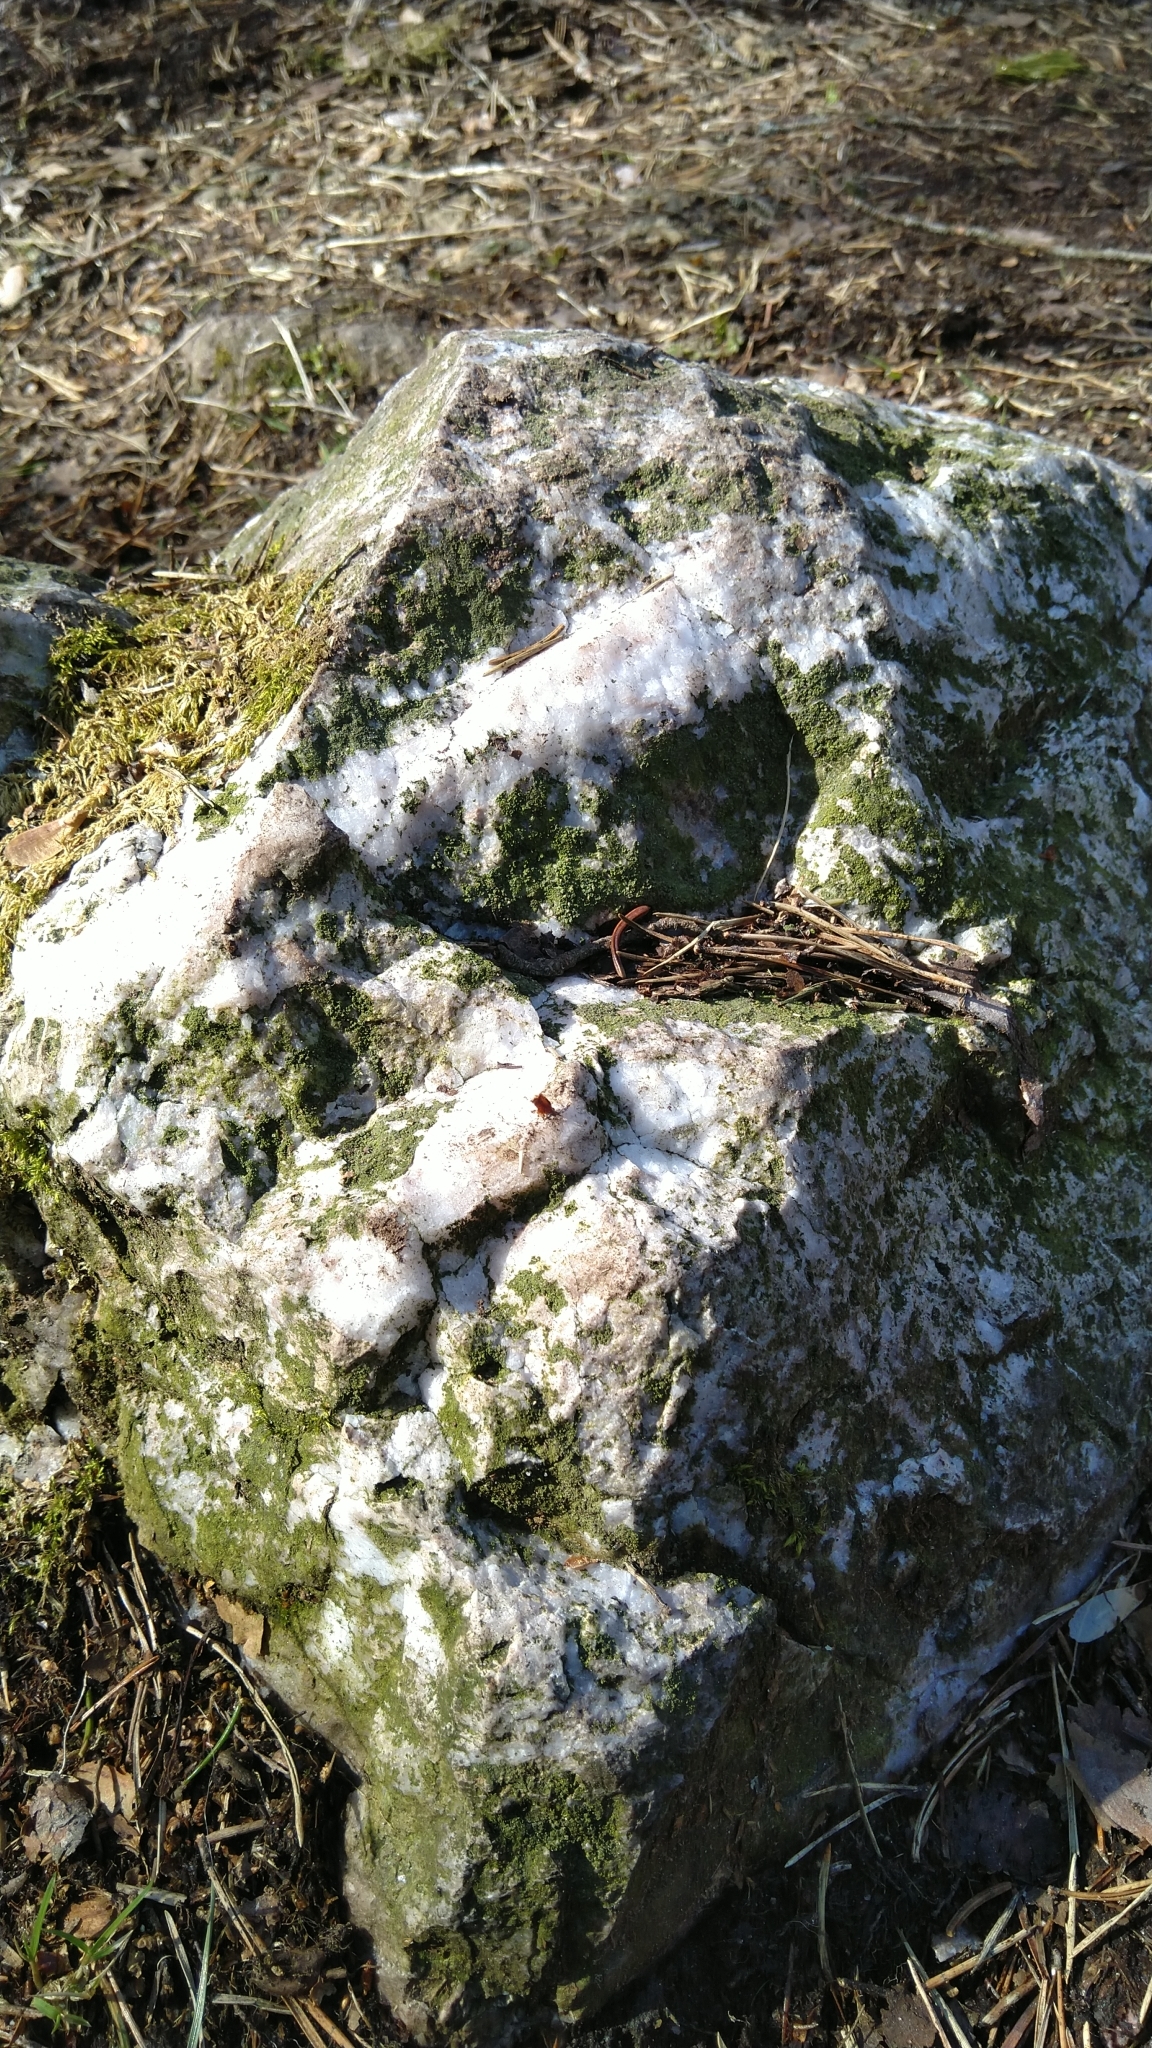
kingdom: Fungi
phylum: Ascomycota
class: Lecanoromycetes
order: Lecanorales
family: Ramalinaceae
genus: Bacidina
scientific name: Bacidina
